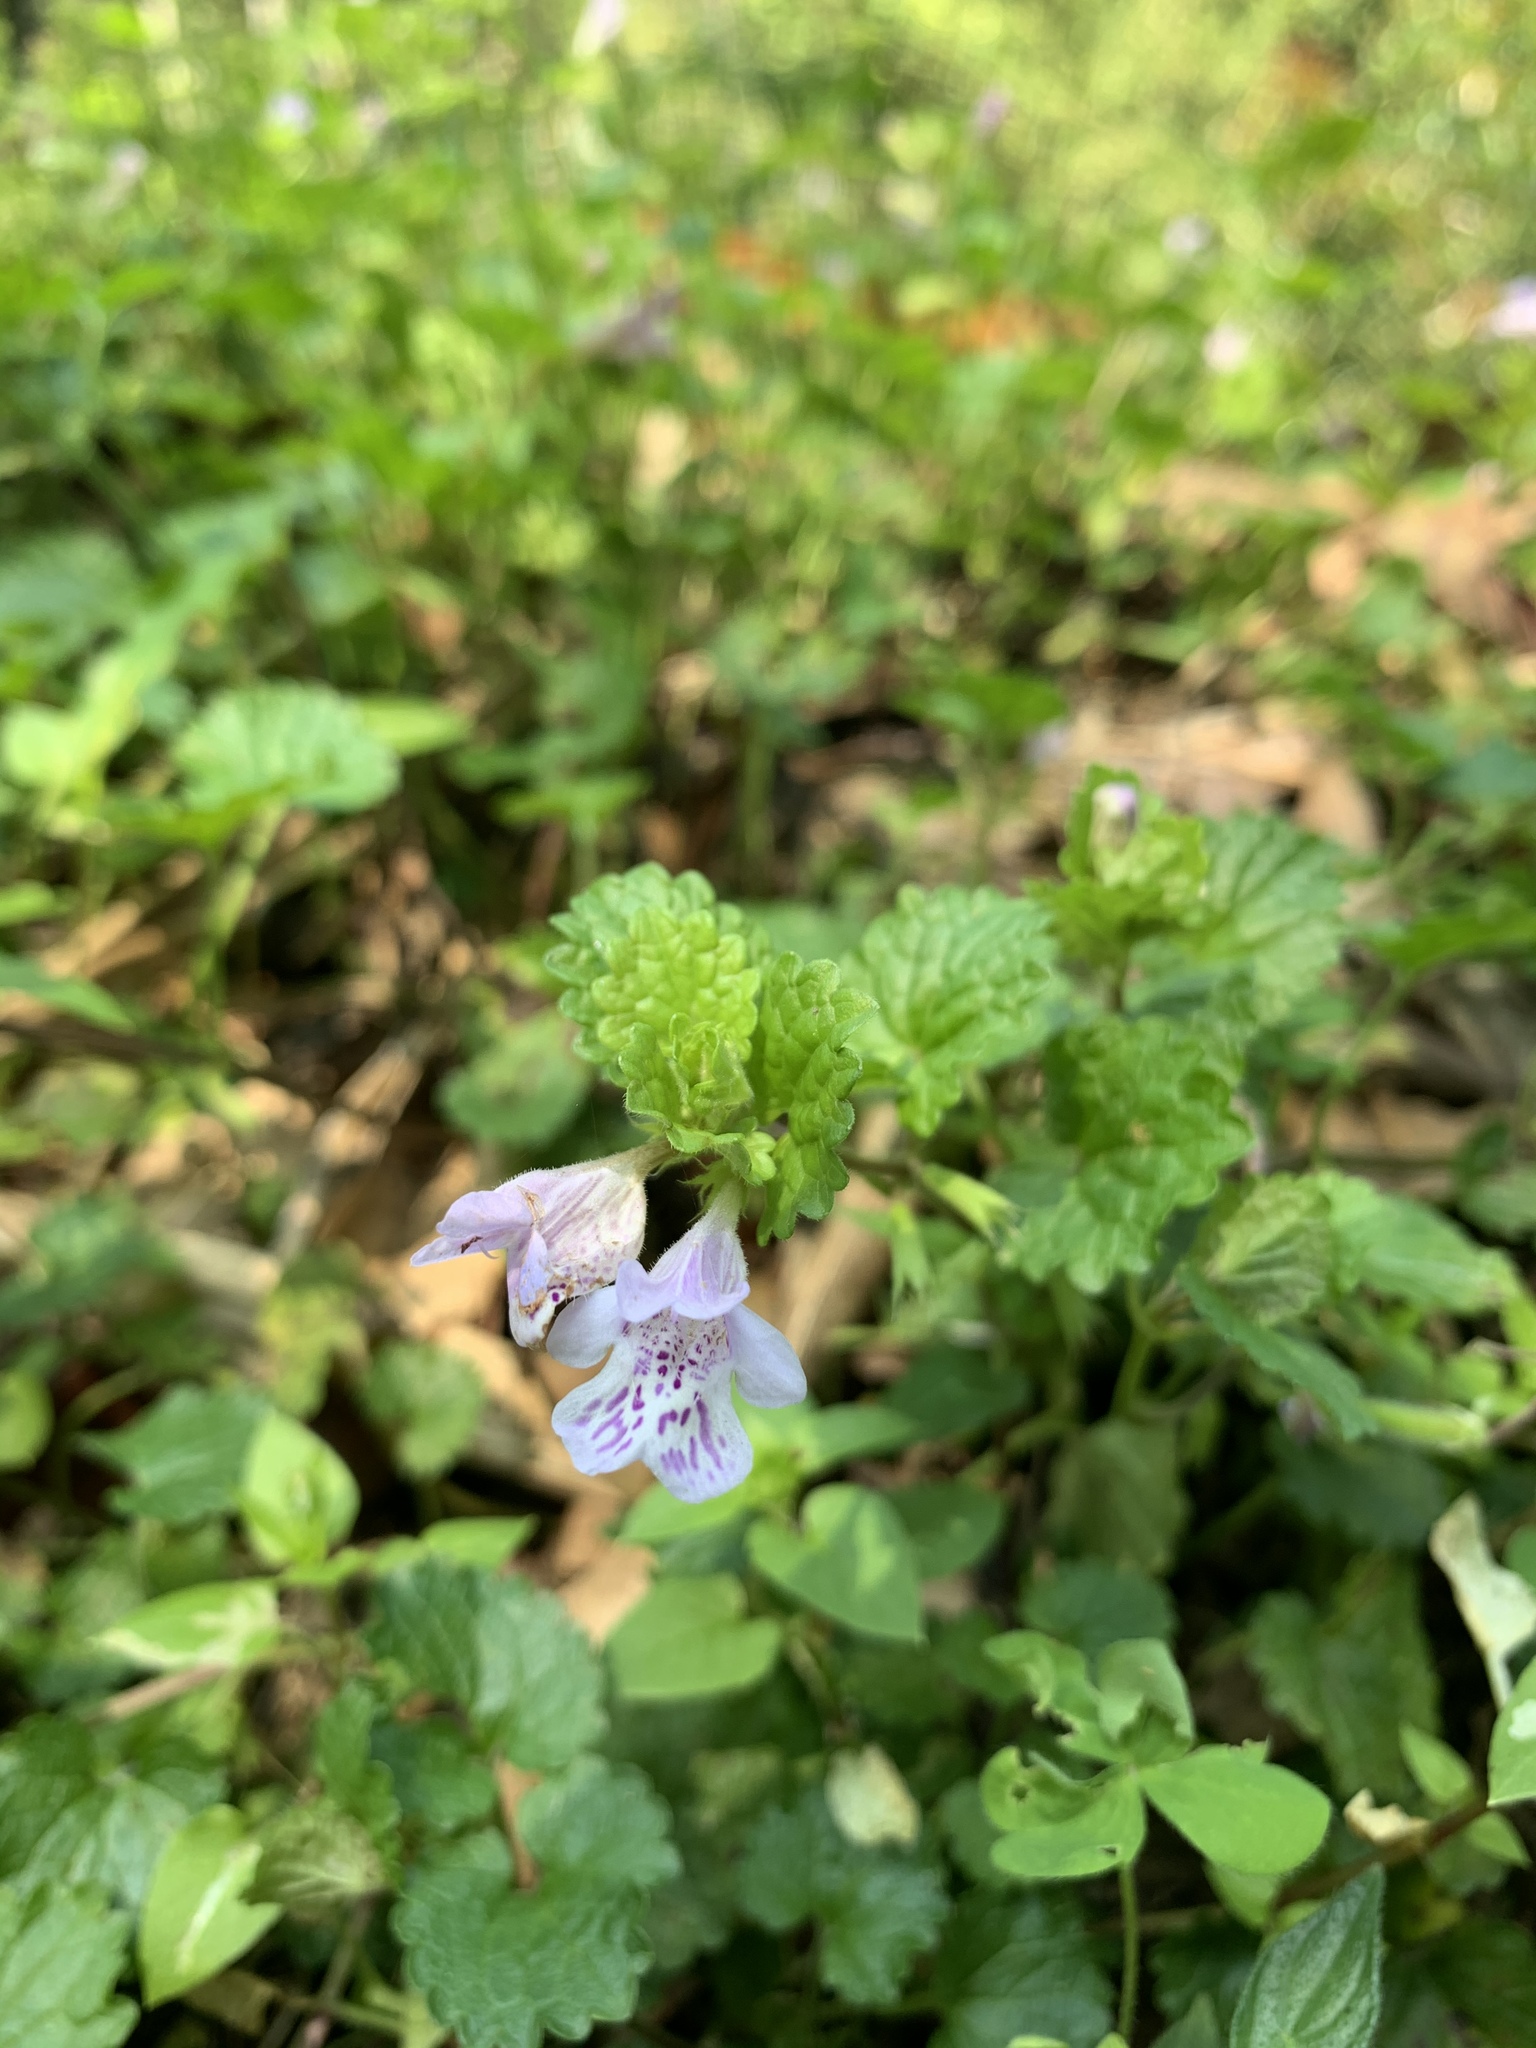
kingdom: Plantae
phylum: Tracheophyta
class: Magnoliopsida
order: Lamiales
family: Lamiaceae
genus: Glechoma
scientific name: Glechoma grandis
